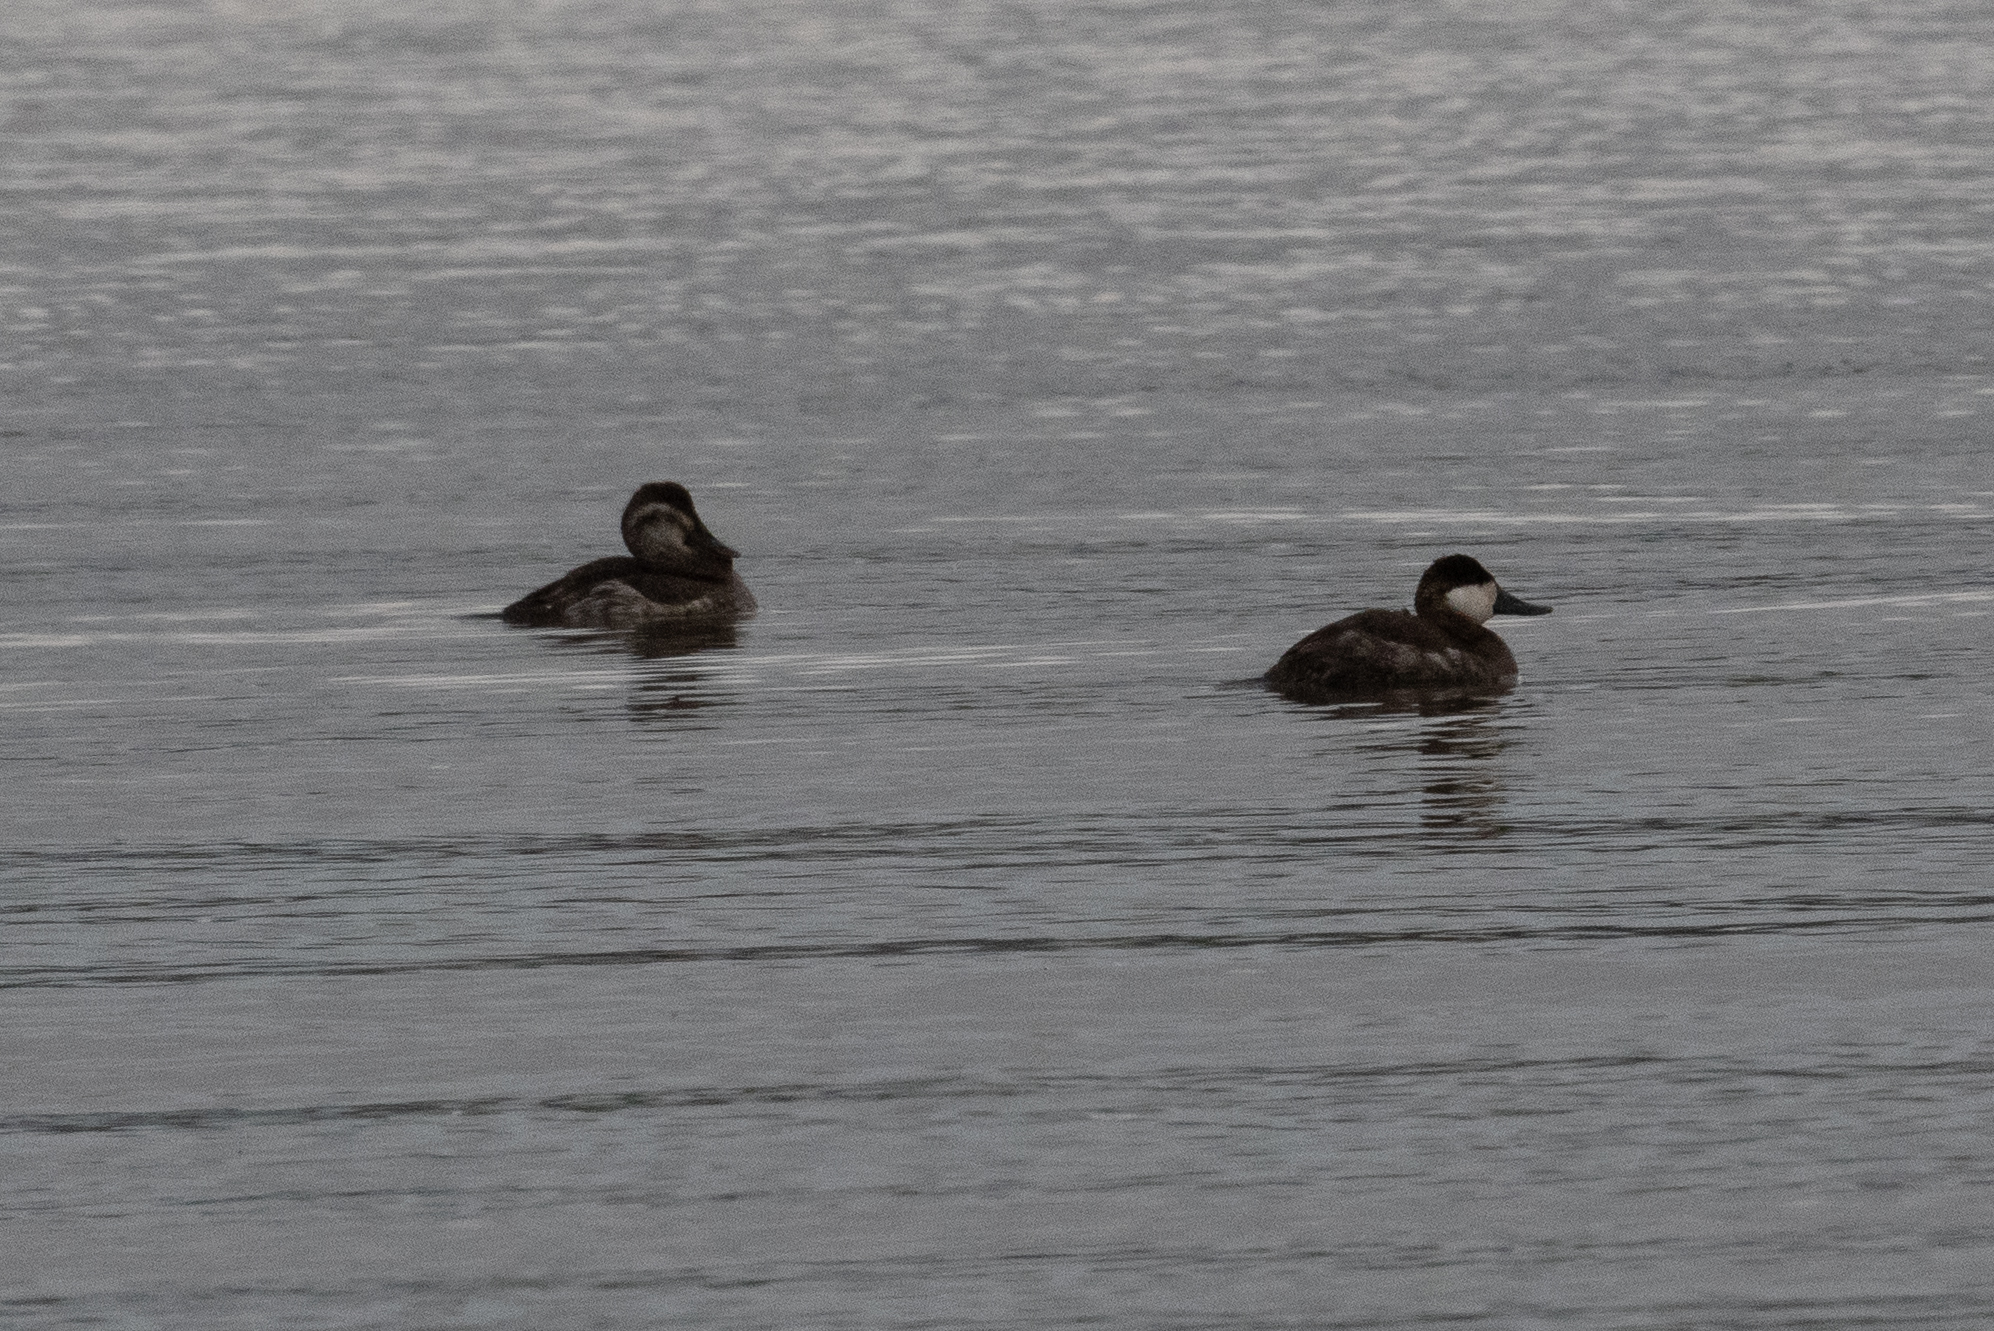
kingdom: Animalia
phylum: Chordata
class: Aves
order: Anseriformes
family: Anatidae
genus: Oxyura
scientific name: Oxyura jamaicensis
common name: Ruddy duck
